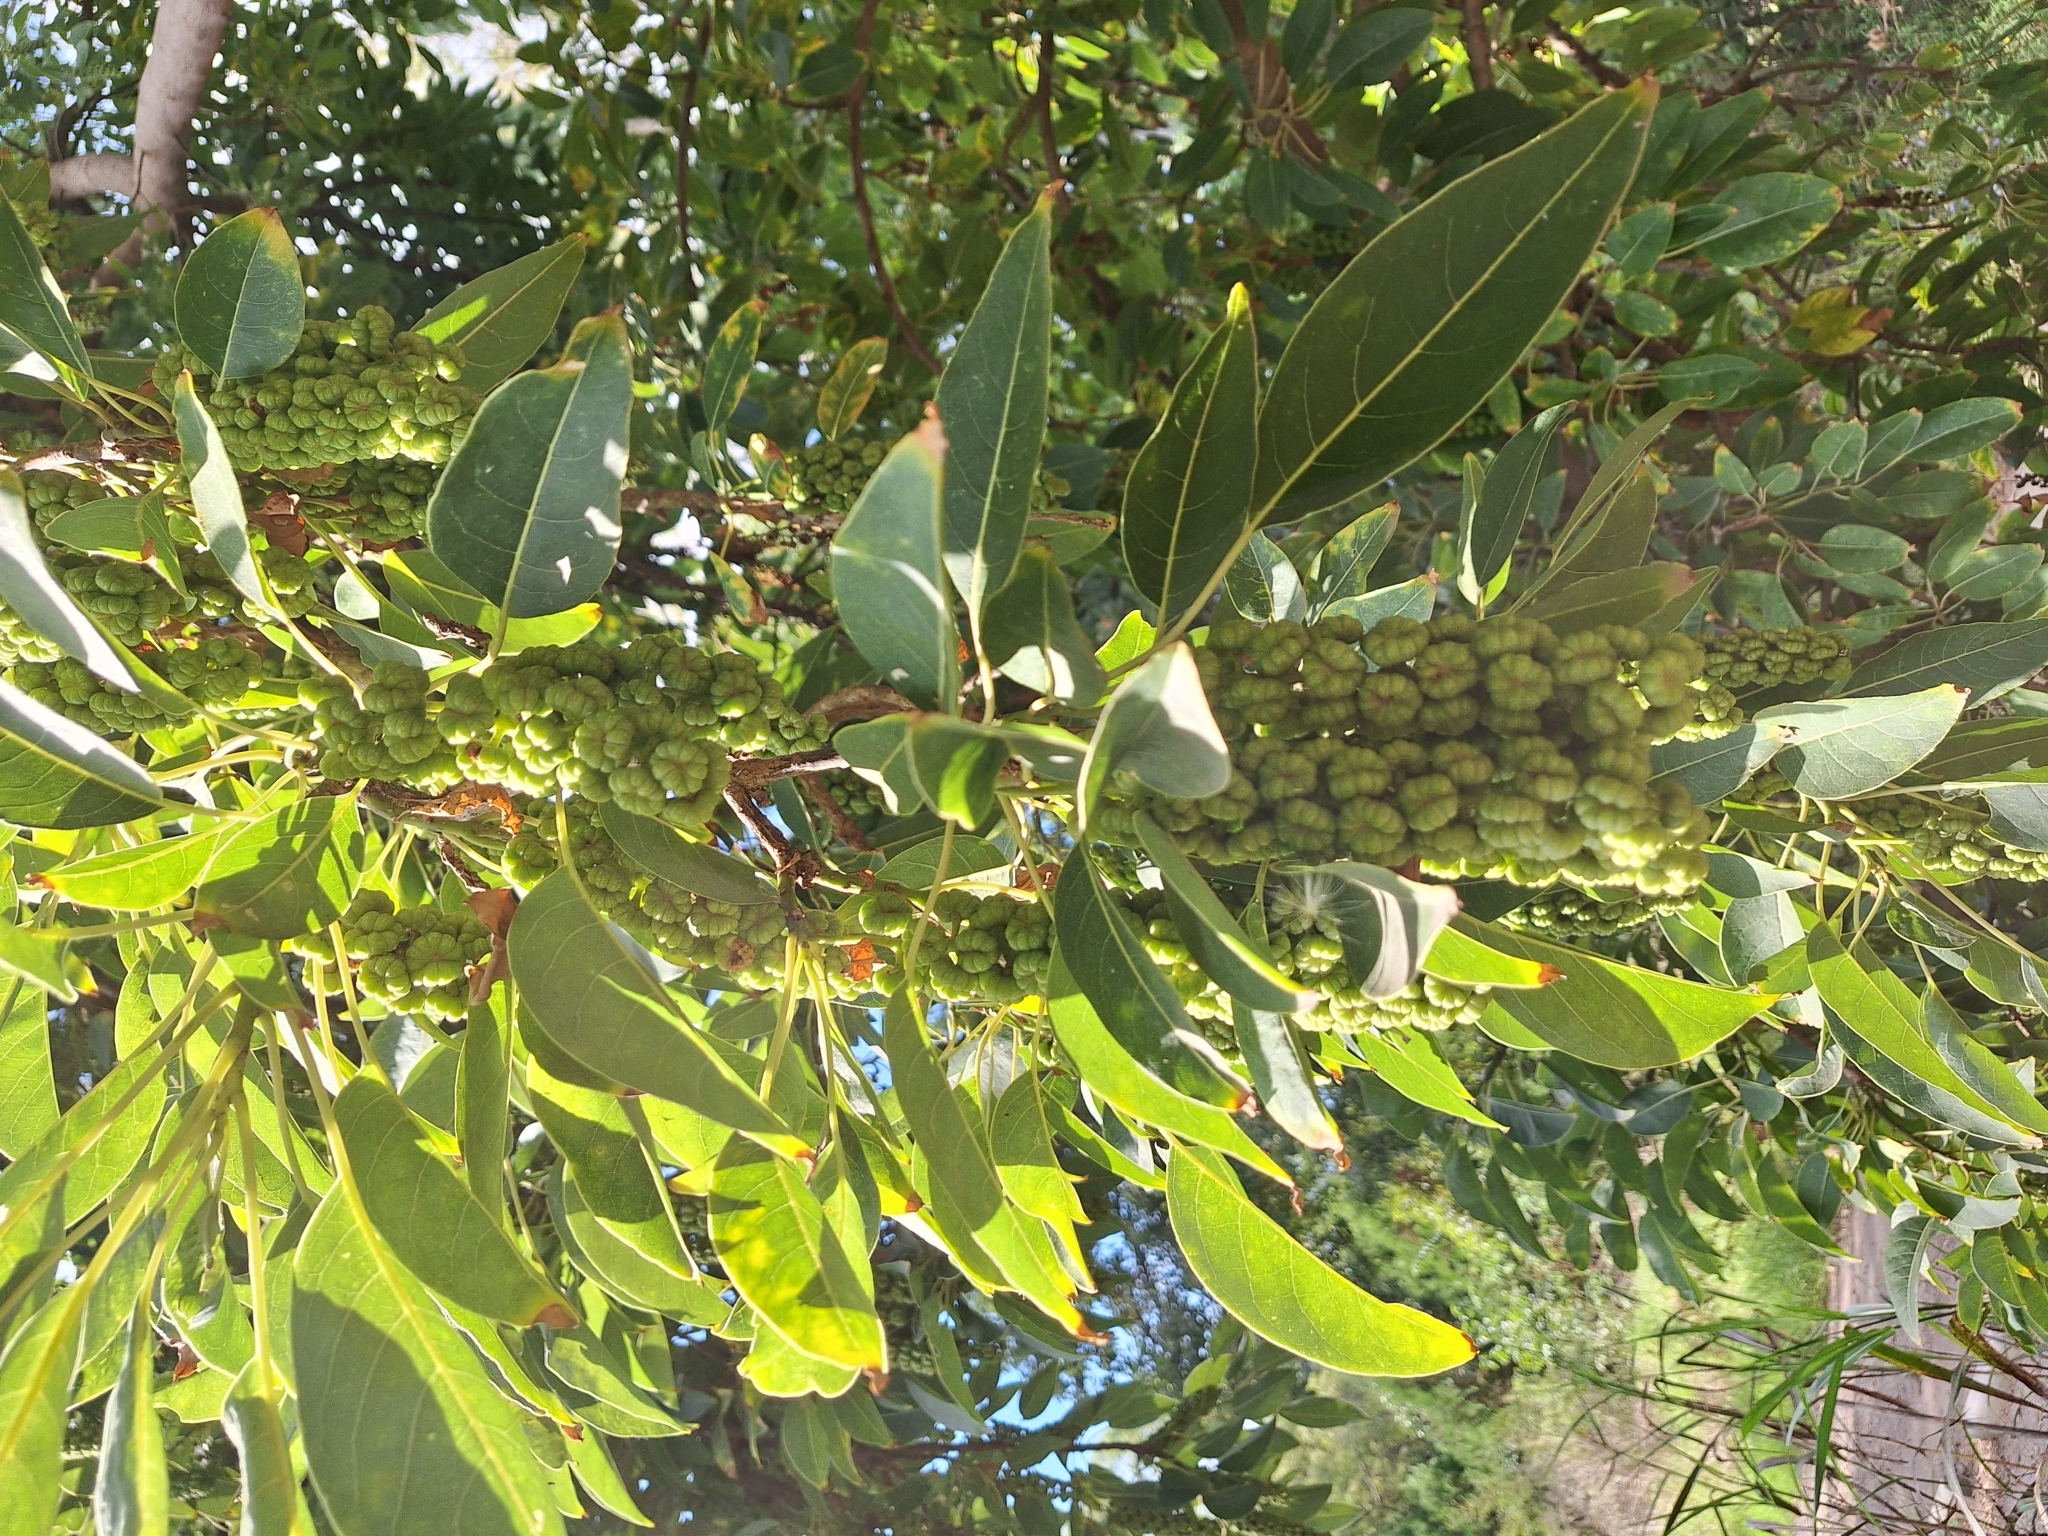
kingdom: Plantae
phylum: Tracheophyta
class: Magnoliopsida
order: Caryophyllales
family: Phytolaccaceae
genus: Phytolacca
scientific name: Phytolacca dioica
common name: Pokeweed
